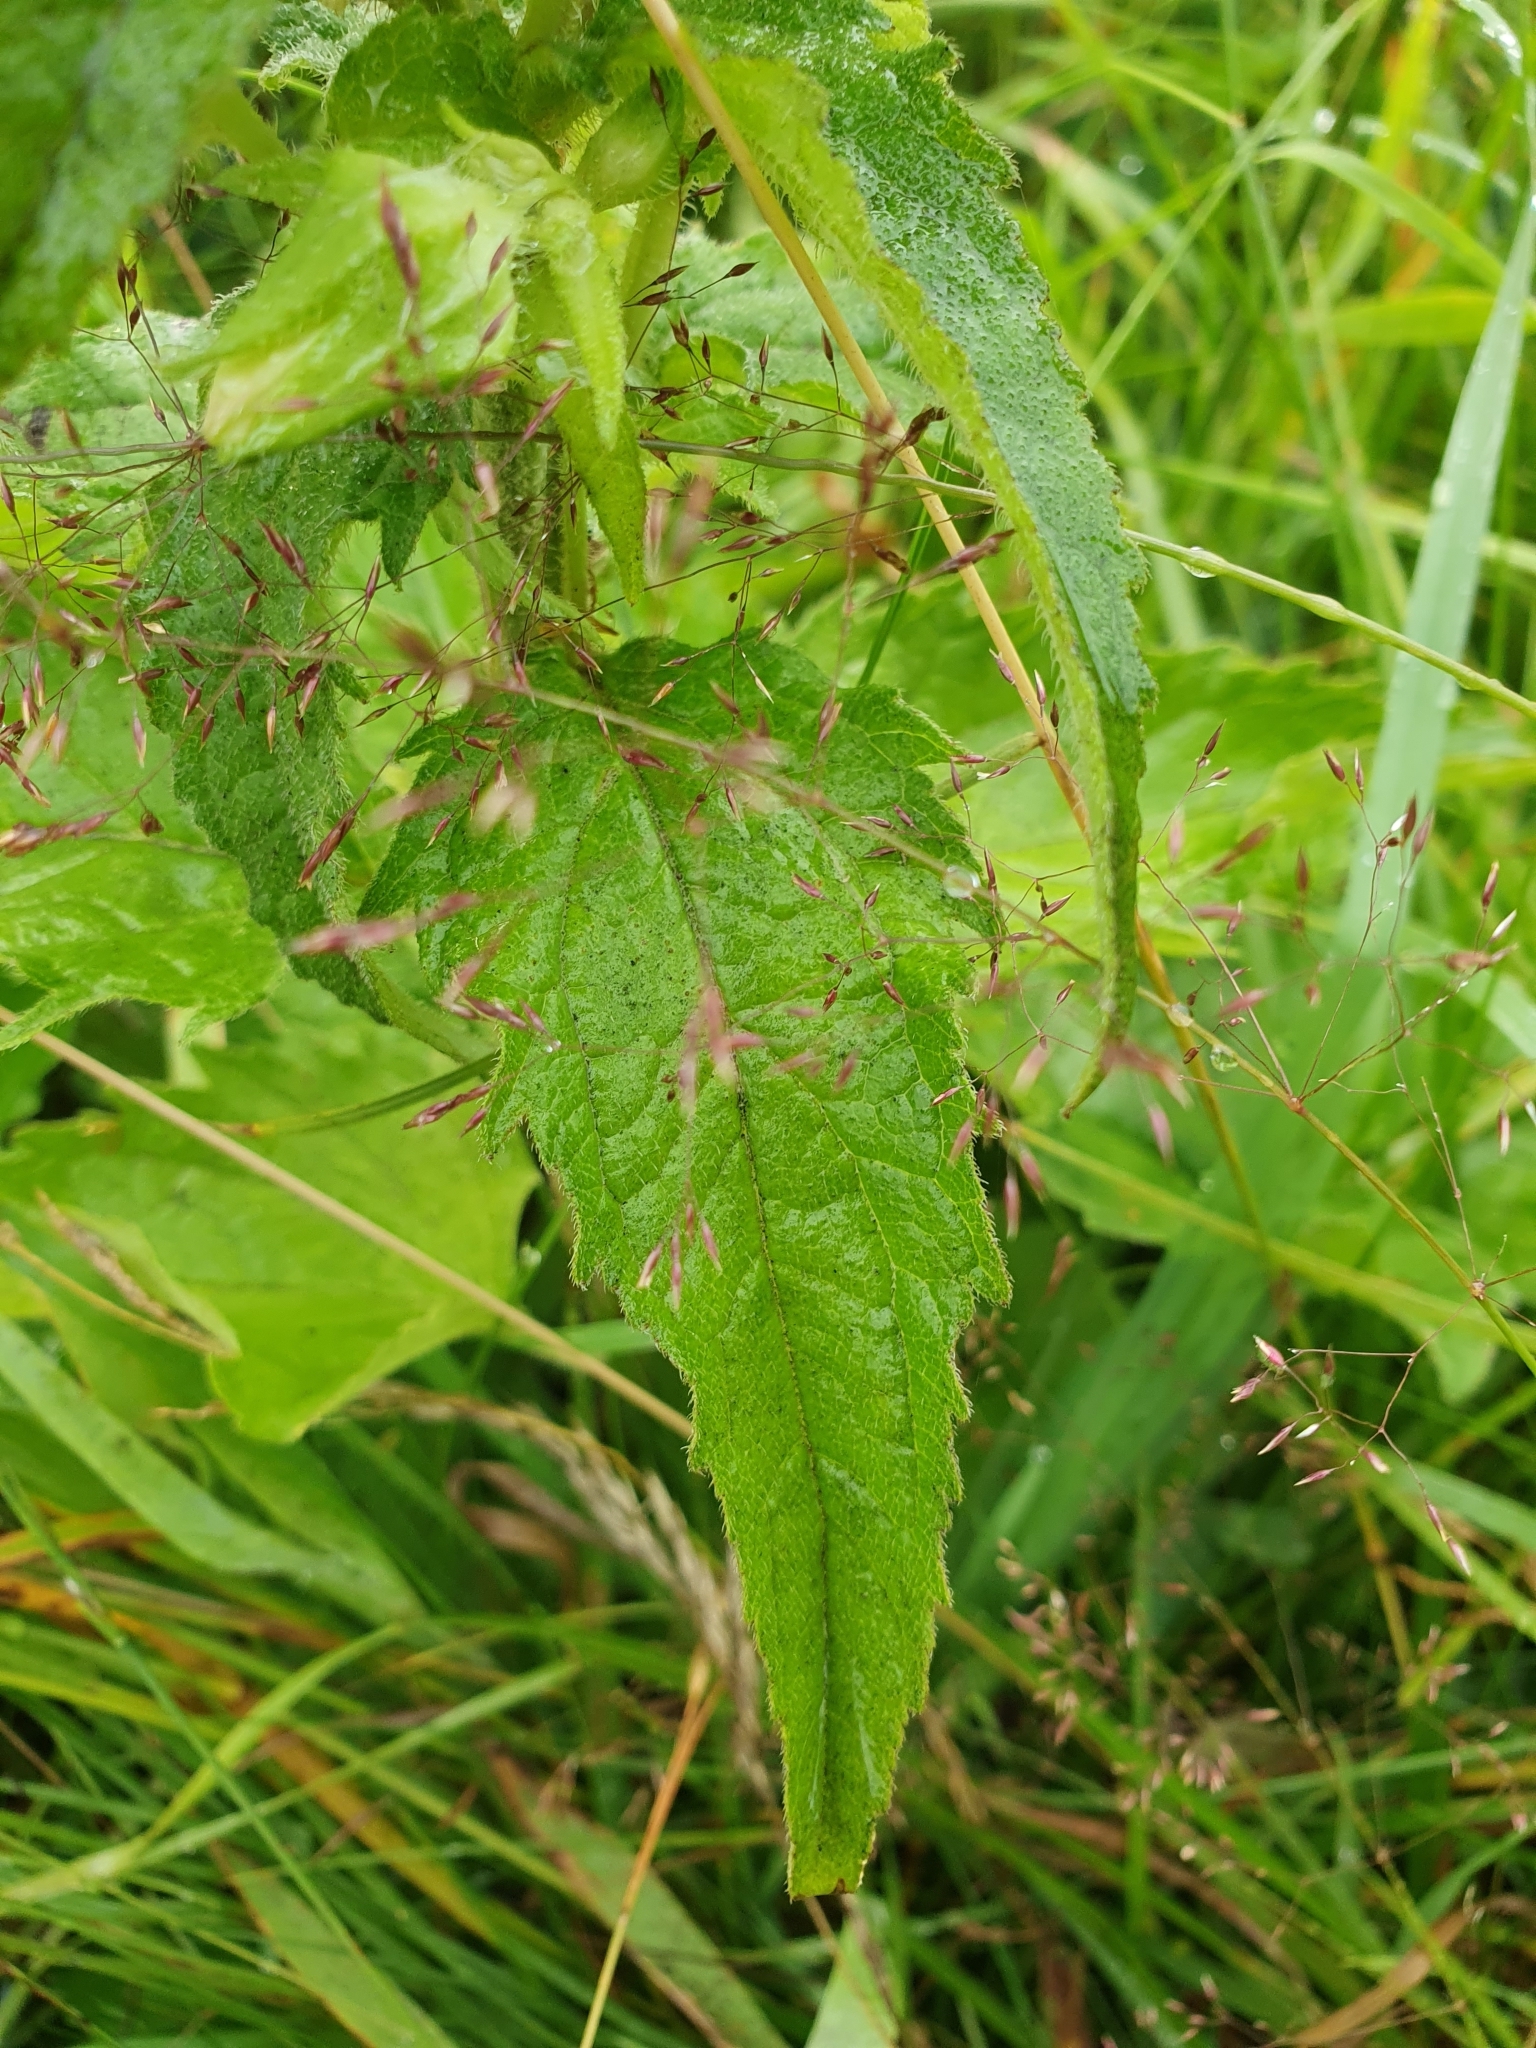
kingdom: Plantae
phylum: Tracheophyta
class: Magnoliopsida
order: Asterales
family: Campanulaceae
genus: Campanula
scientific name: Campanula trachelium
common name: Nettle-leaved bellflower
